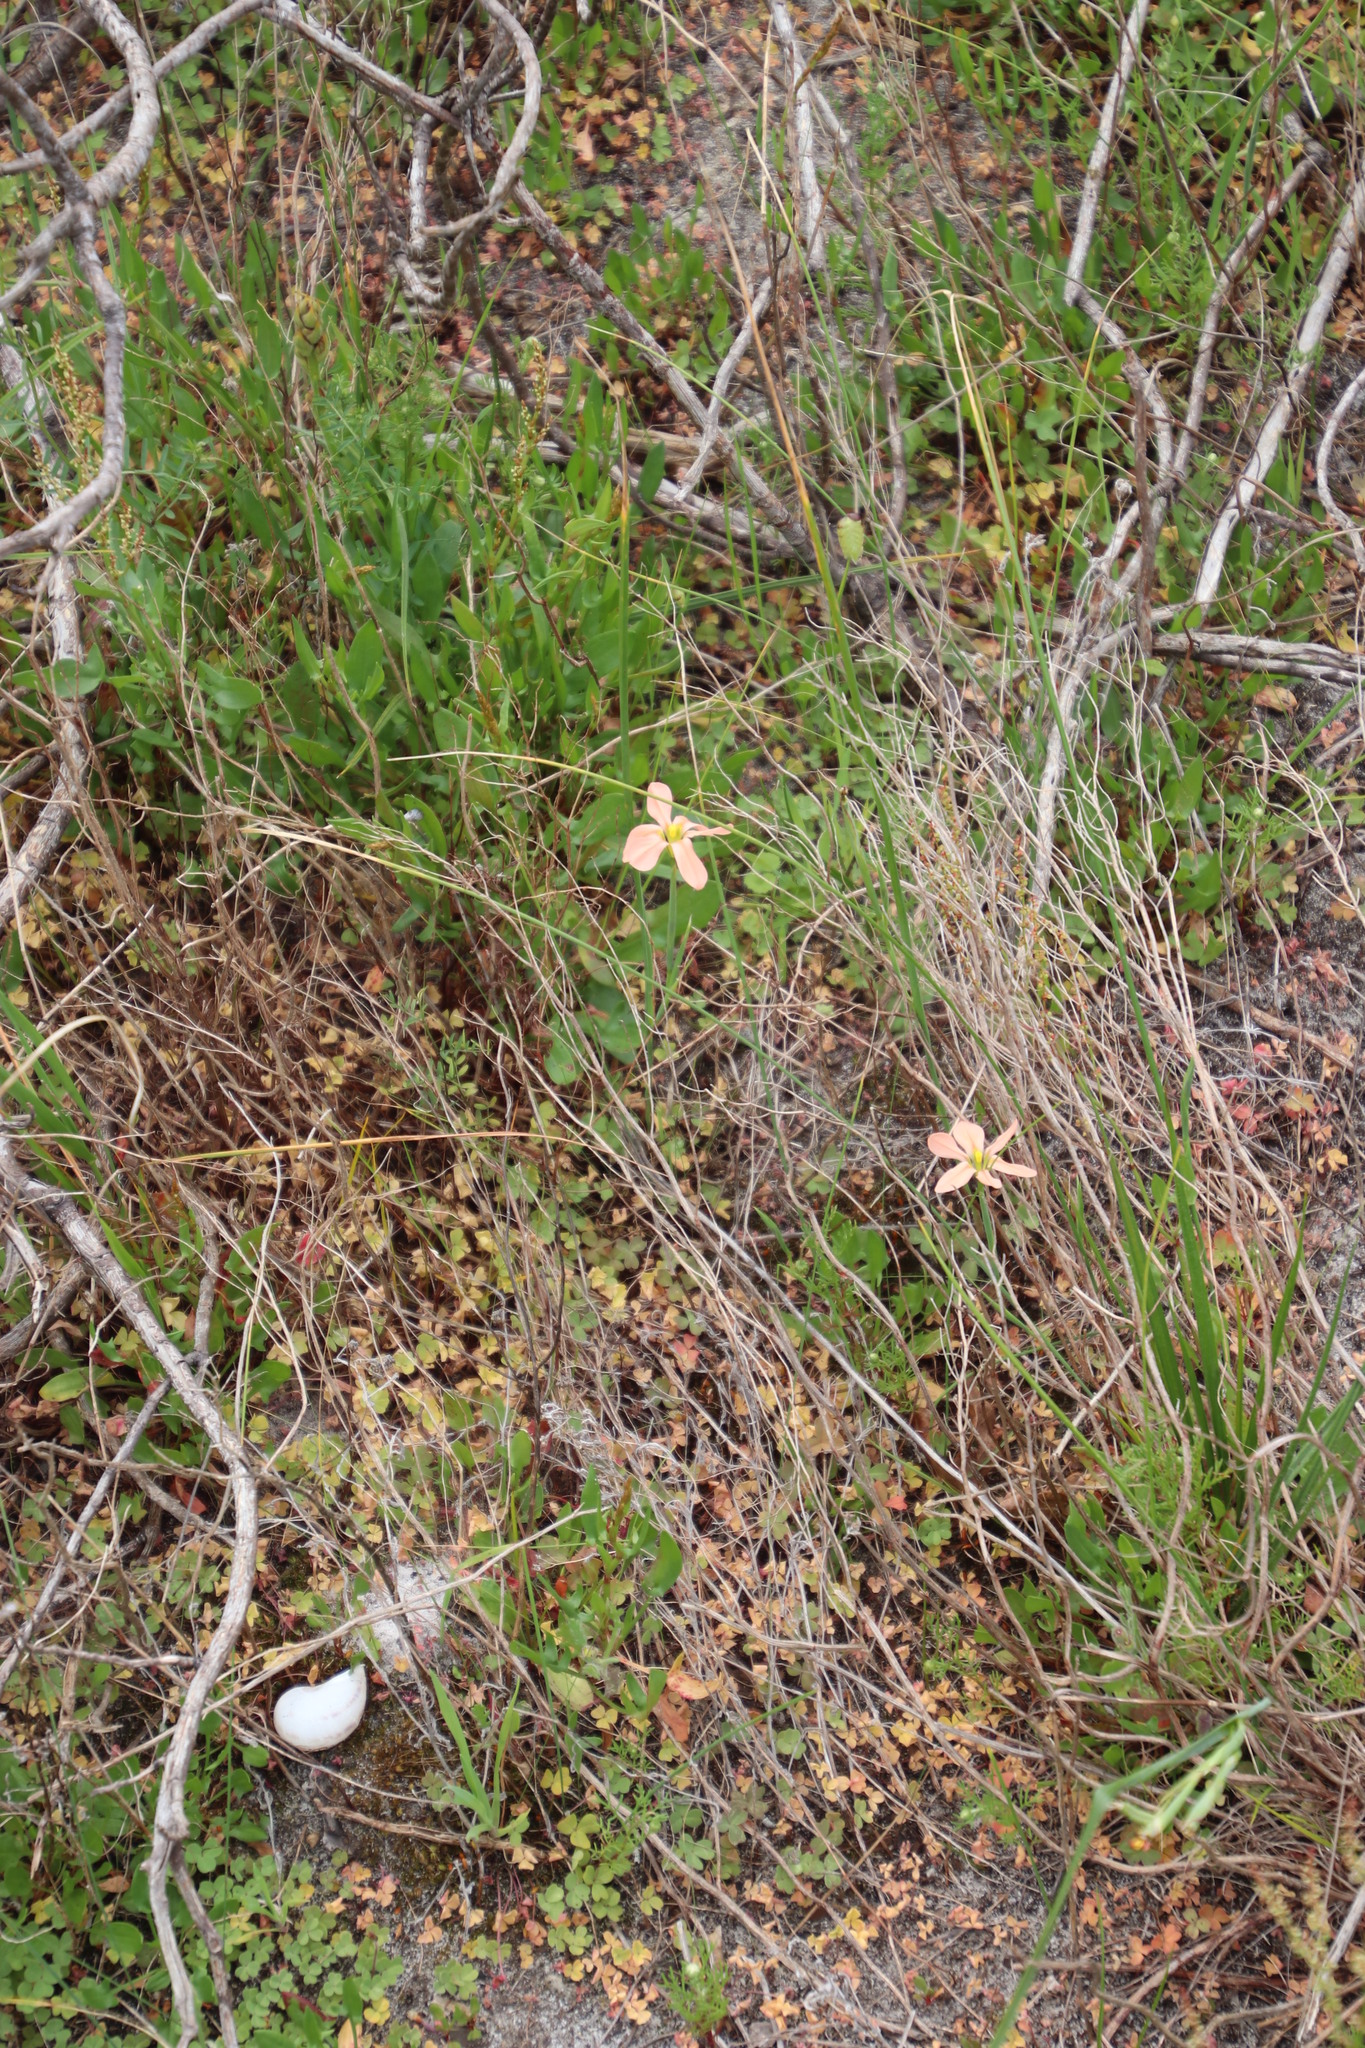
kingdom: Plantae
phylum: Tracheophyta
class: Liliopsida
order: Asparagales
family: Iridaceae
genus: Moraea
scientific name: Moraea flaccida
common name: One-leaf cape-tulip
